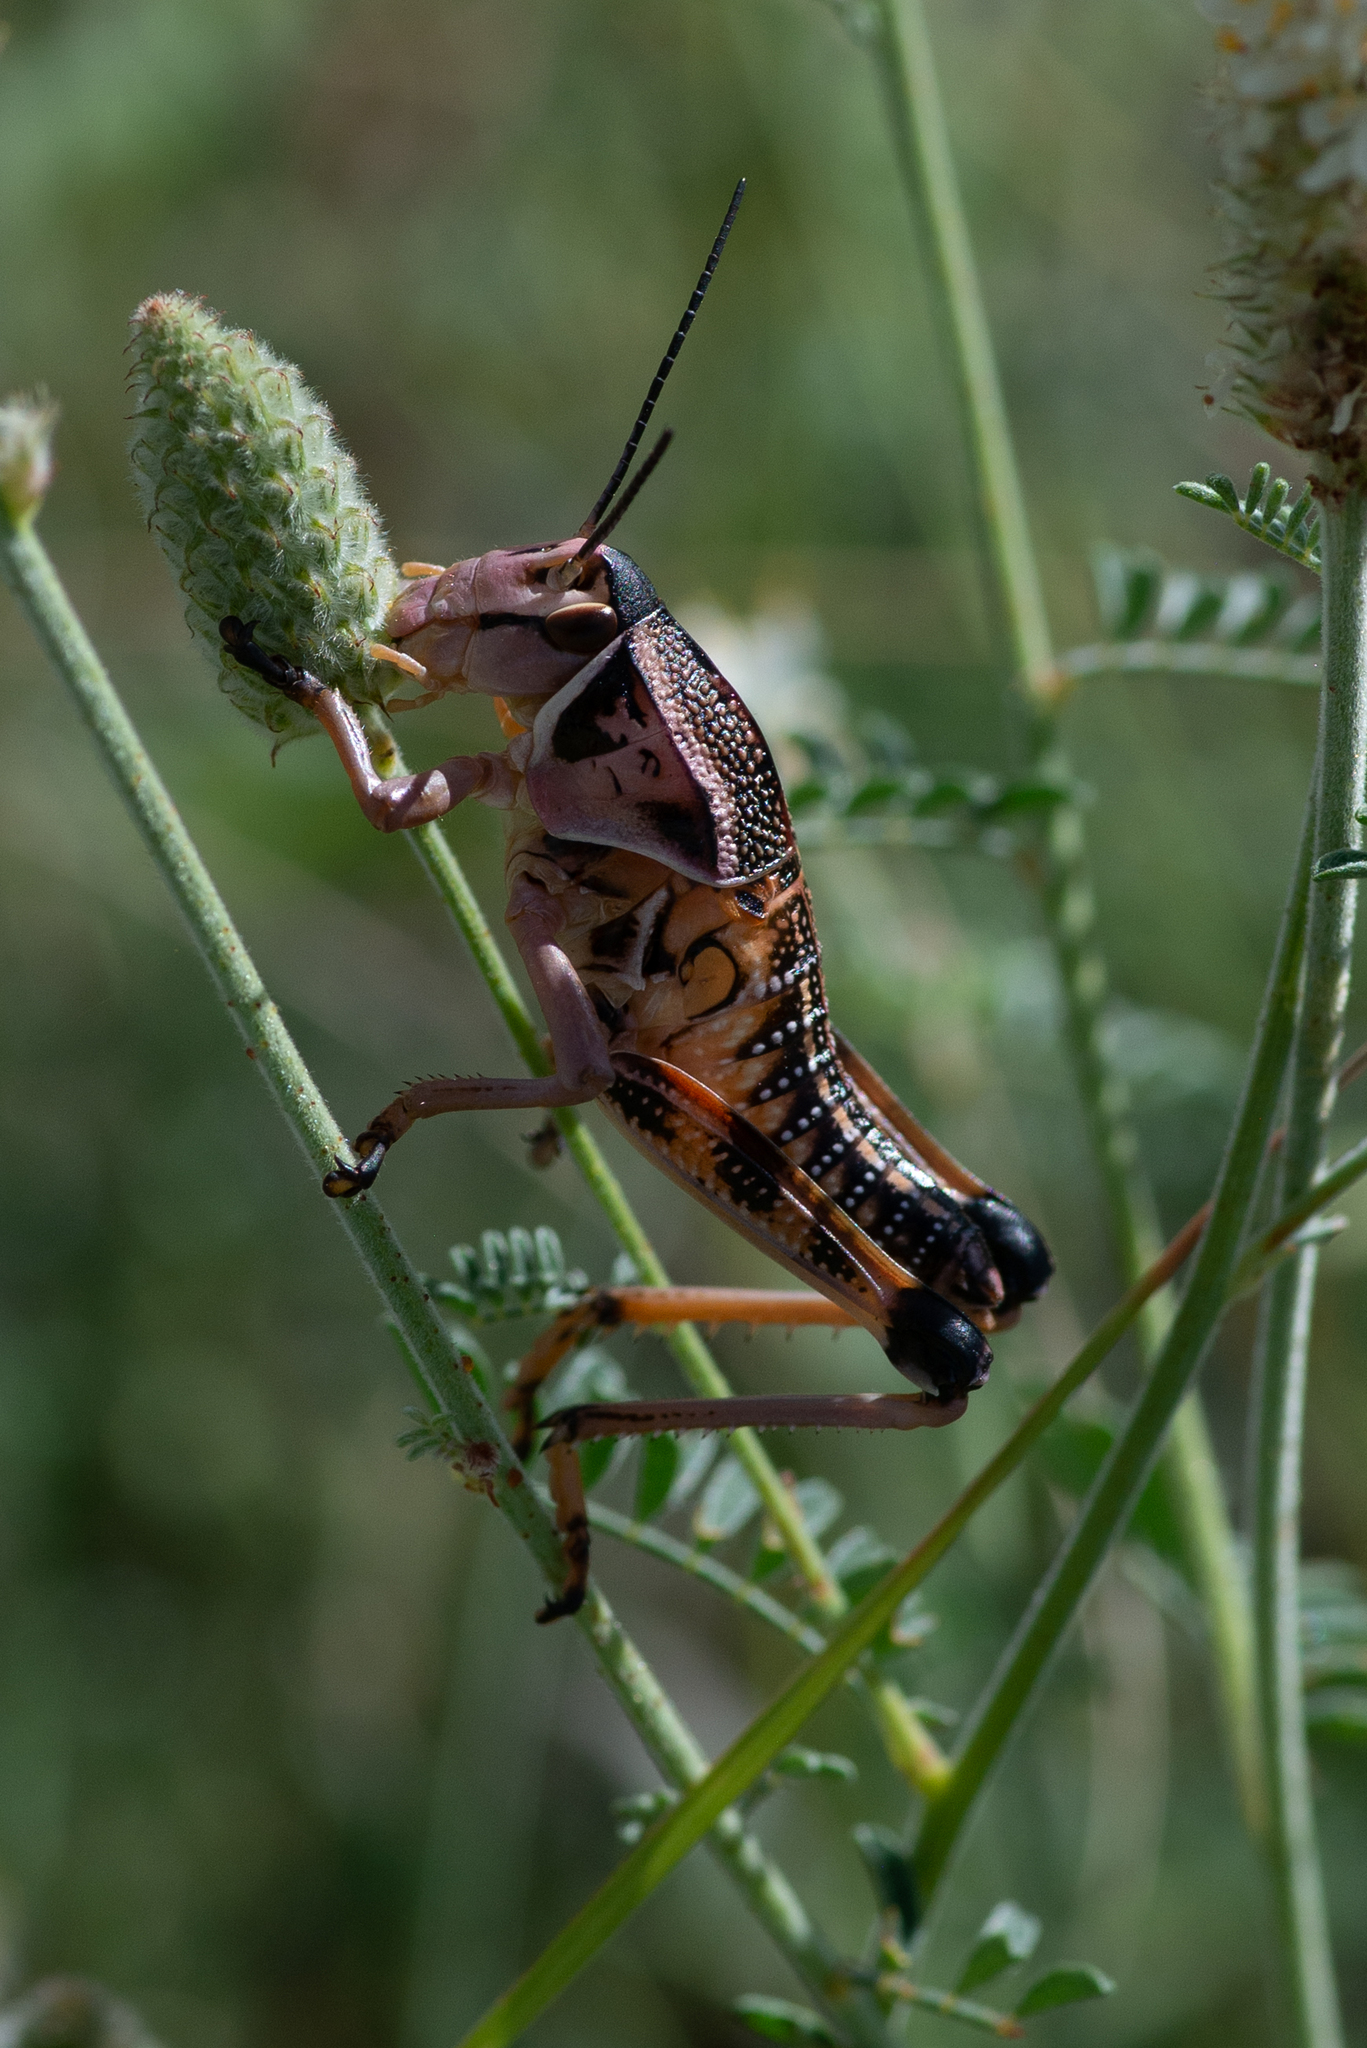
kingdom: Animalia
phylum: Arthropoda
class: Insecta
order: Orthoptera
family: Romaleidae
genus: Brachystola
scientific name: Brachystola magna
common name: Plains lubber grasshopper
